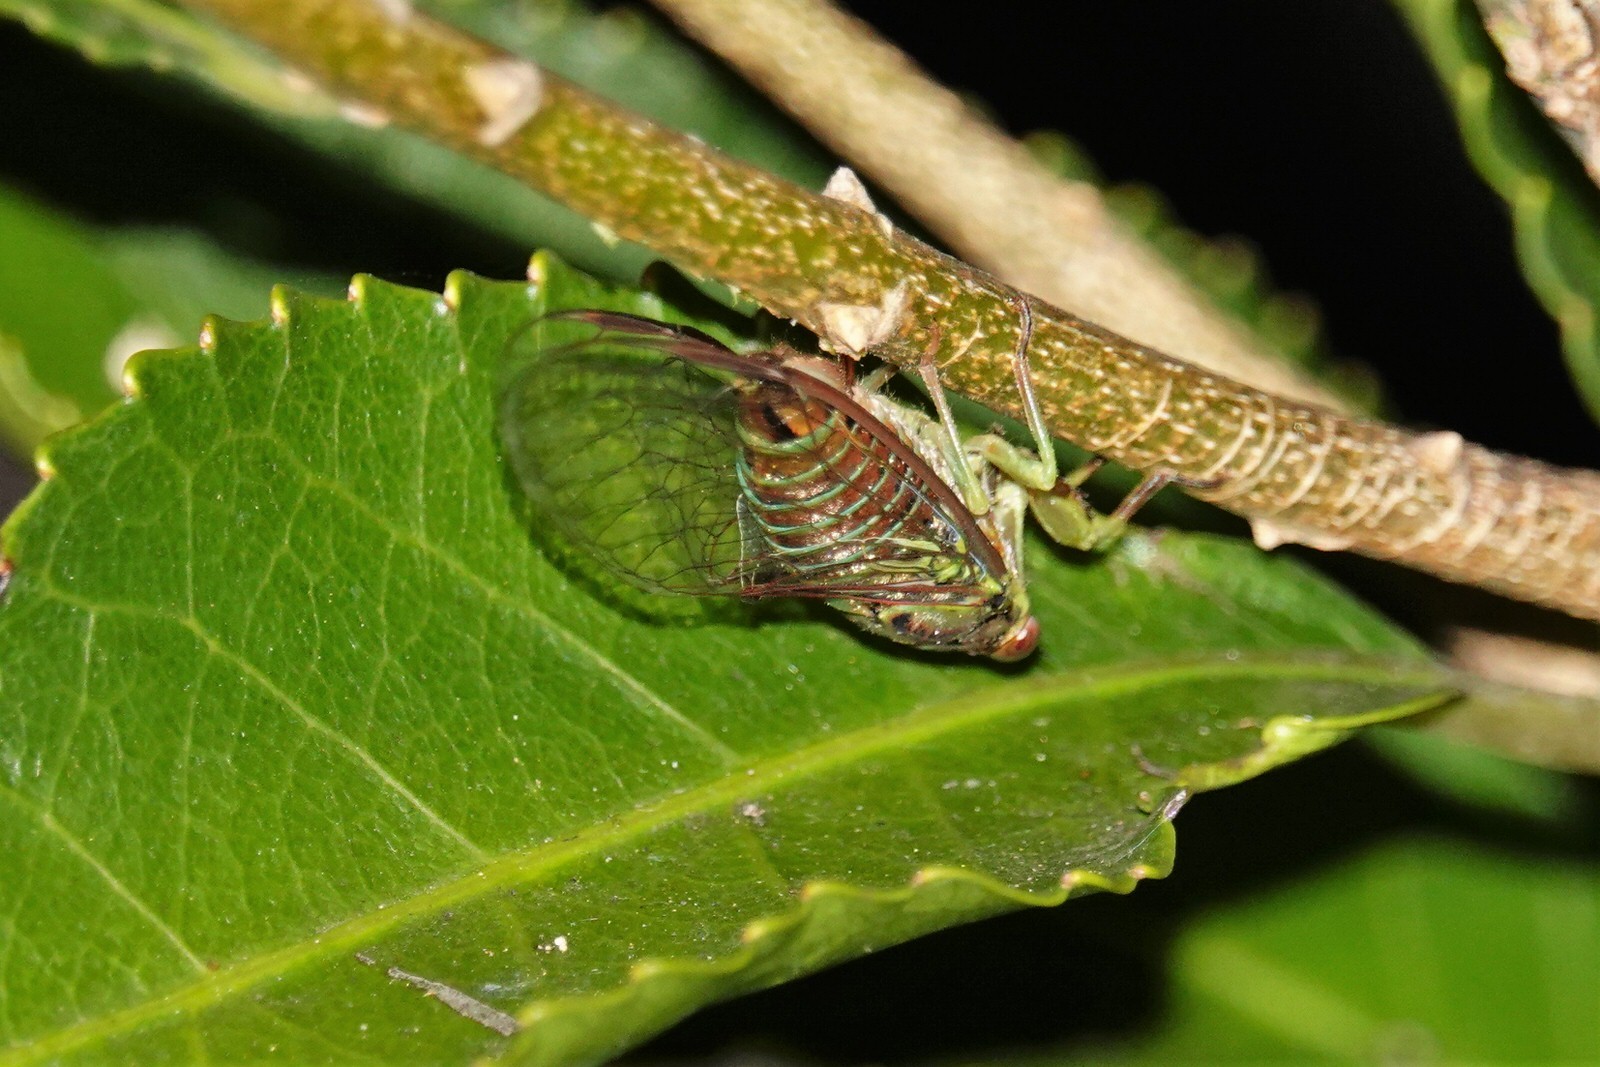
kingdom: Animalia
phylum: Arthropoda
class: Insecta
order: Hemiptera
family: Cicadidae
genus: Kikihia
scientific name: Kikihia scutellaris
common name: Lesser bronze cicada
